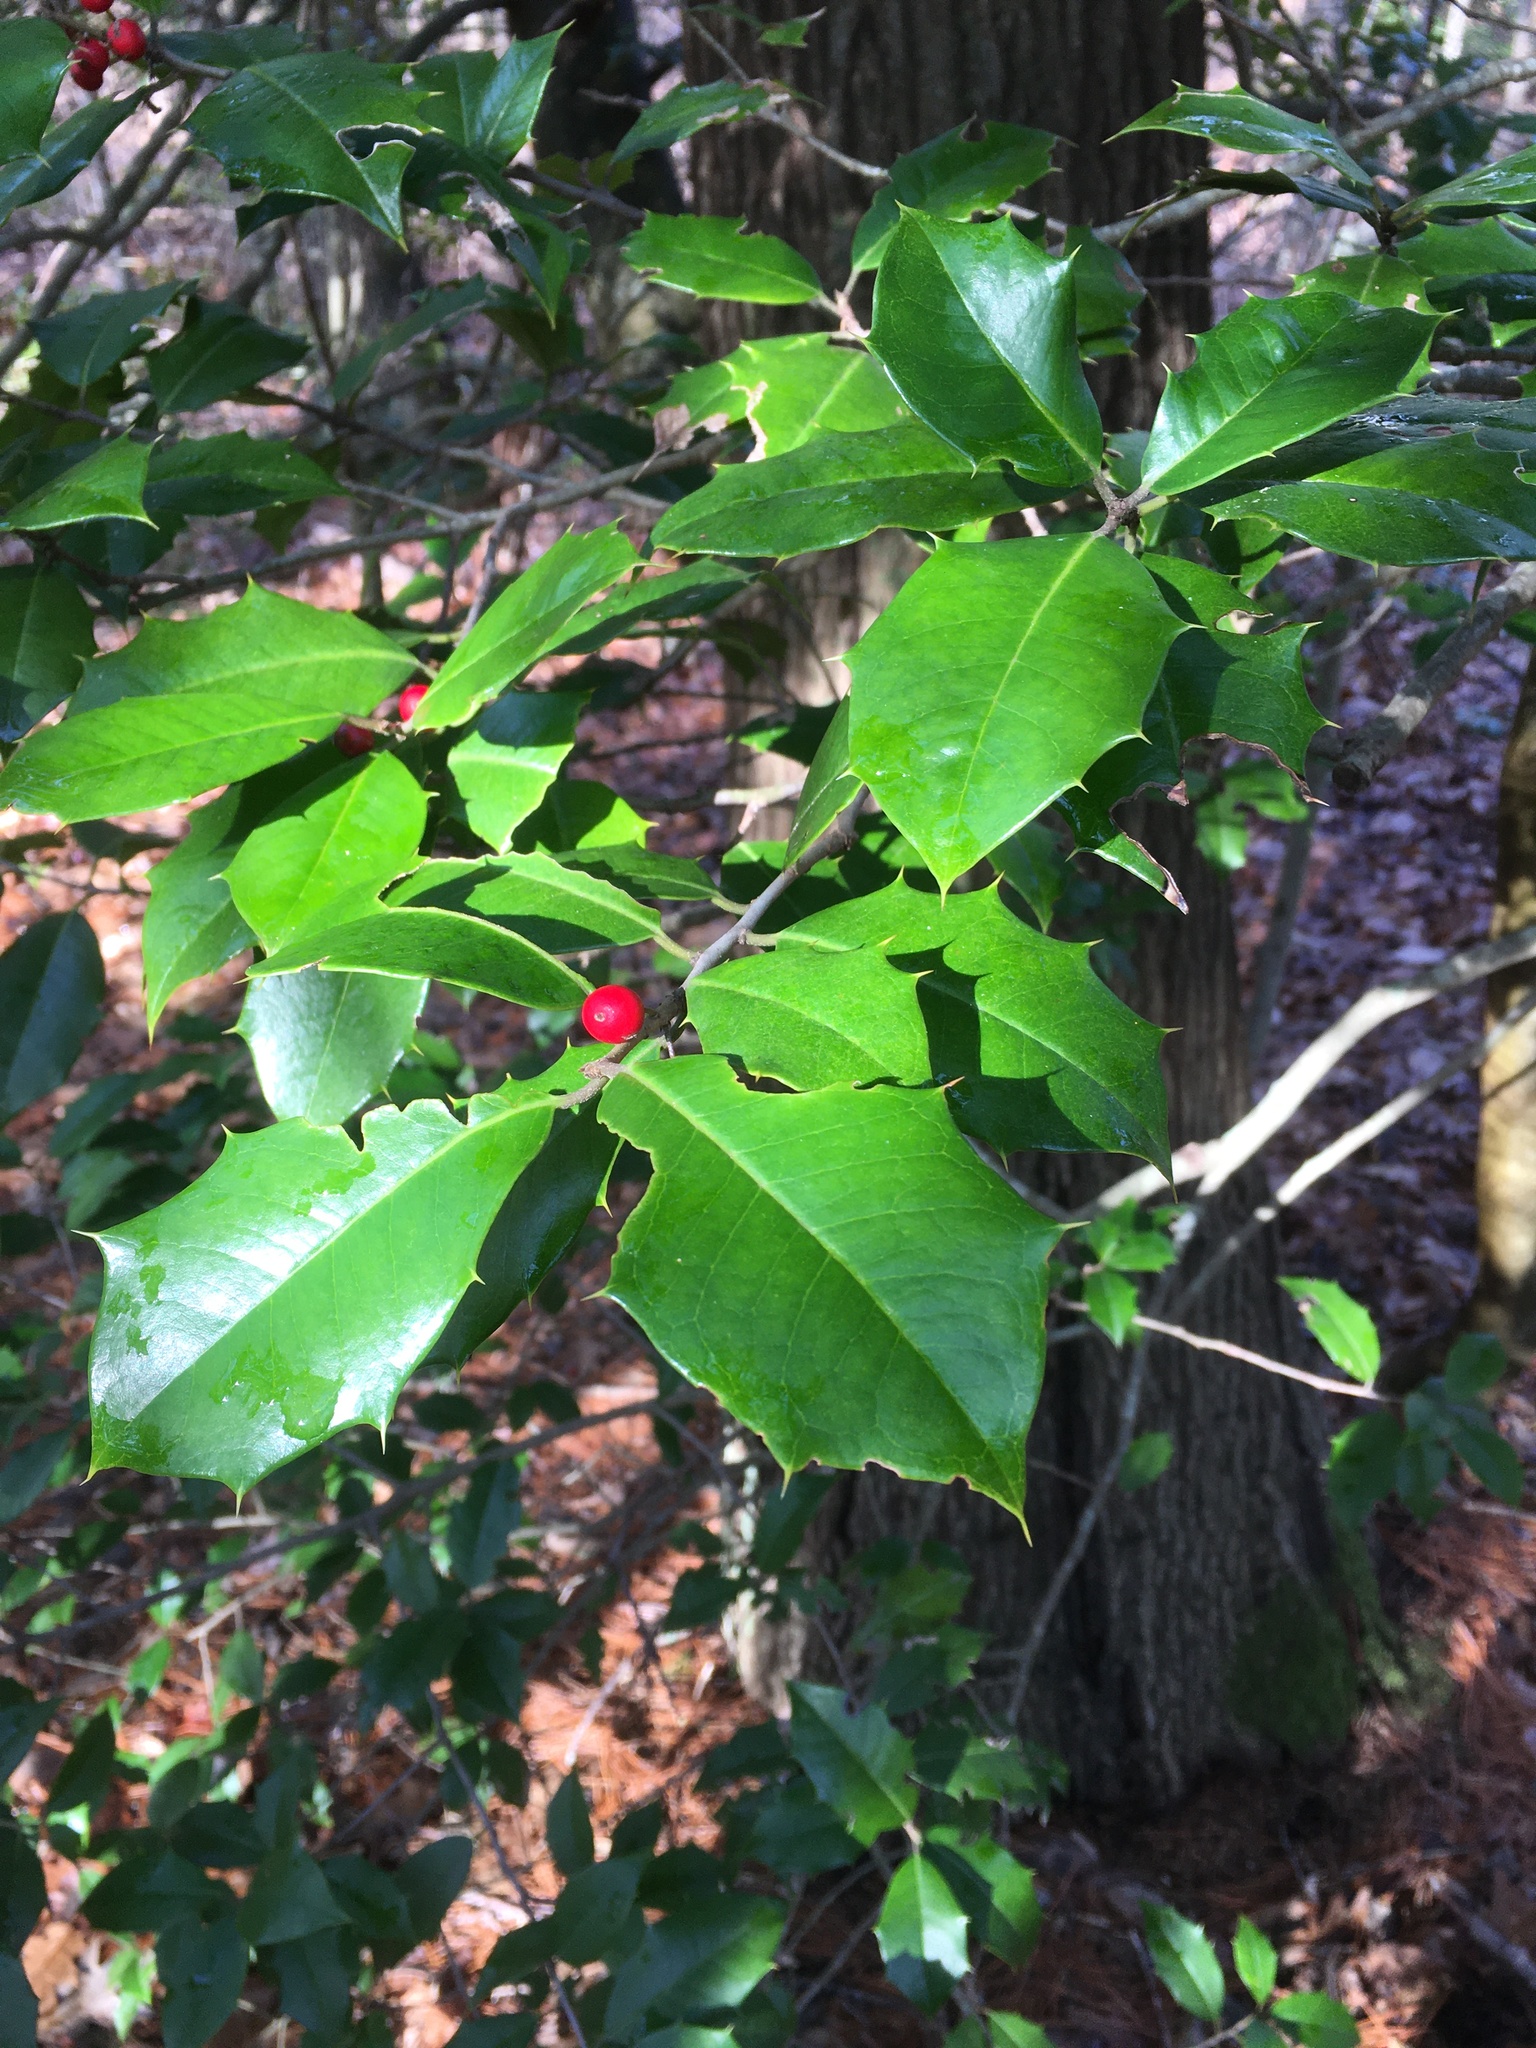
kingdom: Plantae
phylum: Tracheophyta
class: Magnoliopsida
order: Aquifoliales
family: Aquifoliaceae
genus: Ilex
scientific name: Ilex opaca
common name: American holly
